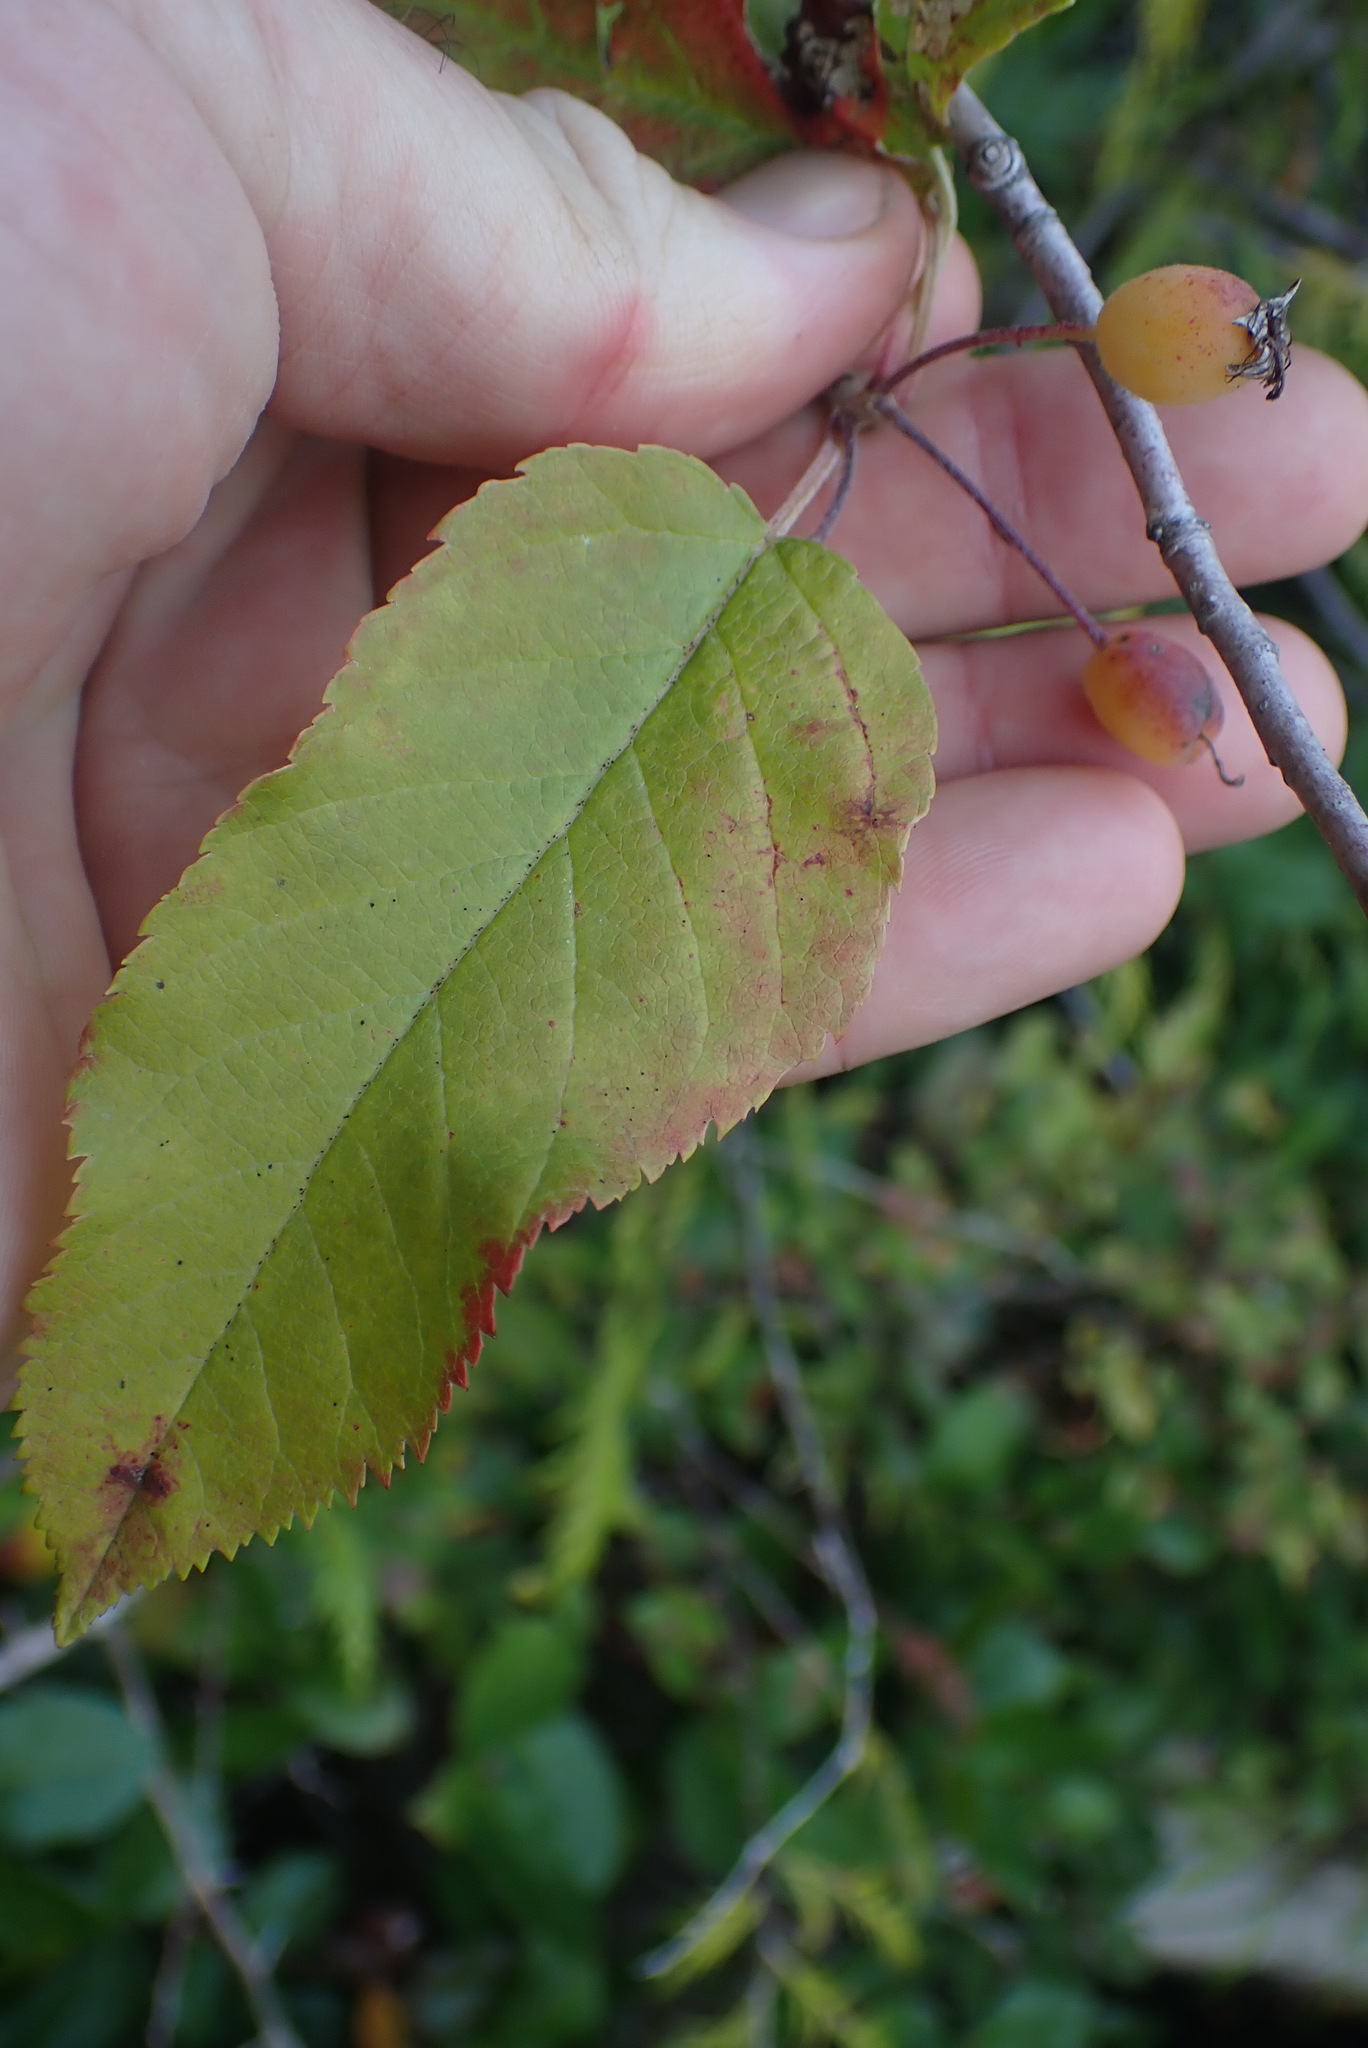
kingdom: Plantae
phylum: Tracheophyta
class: Magnoliopsida
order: Rosales
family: Rosaceae
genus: Malus
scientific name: Malus fusca
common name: Oregon crab apple
